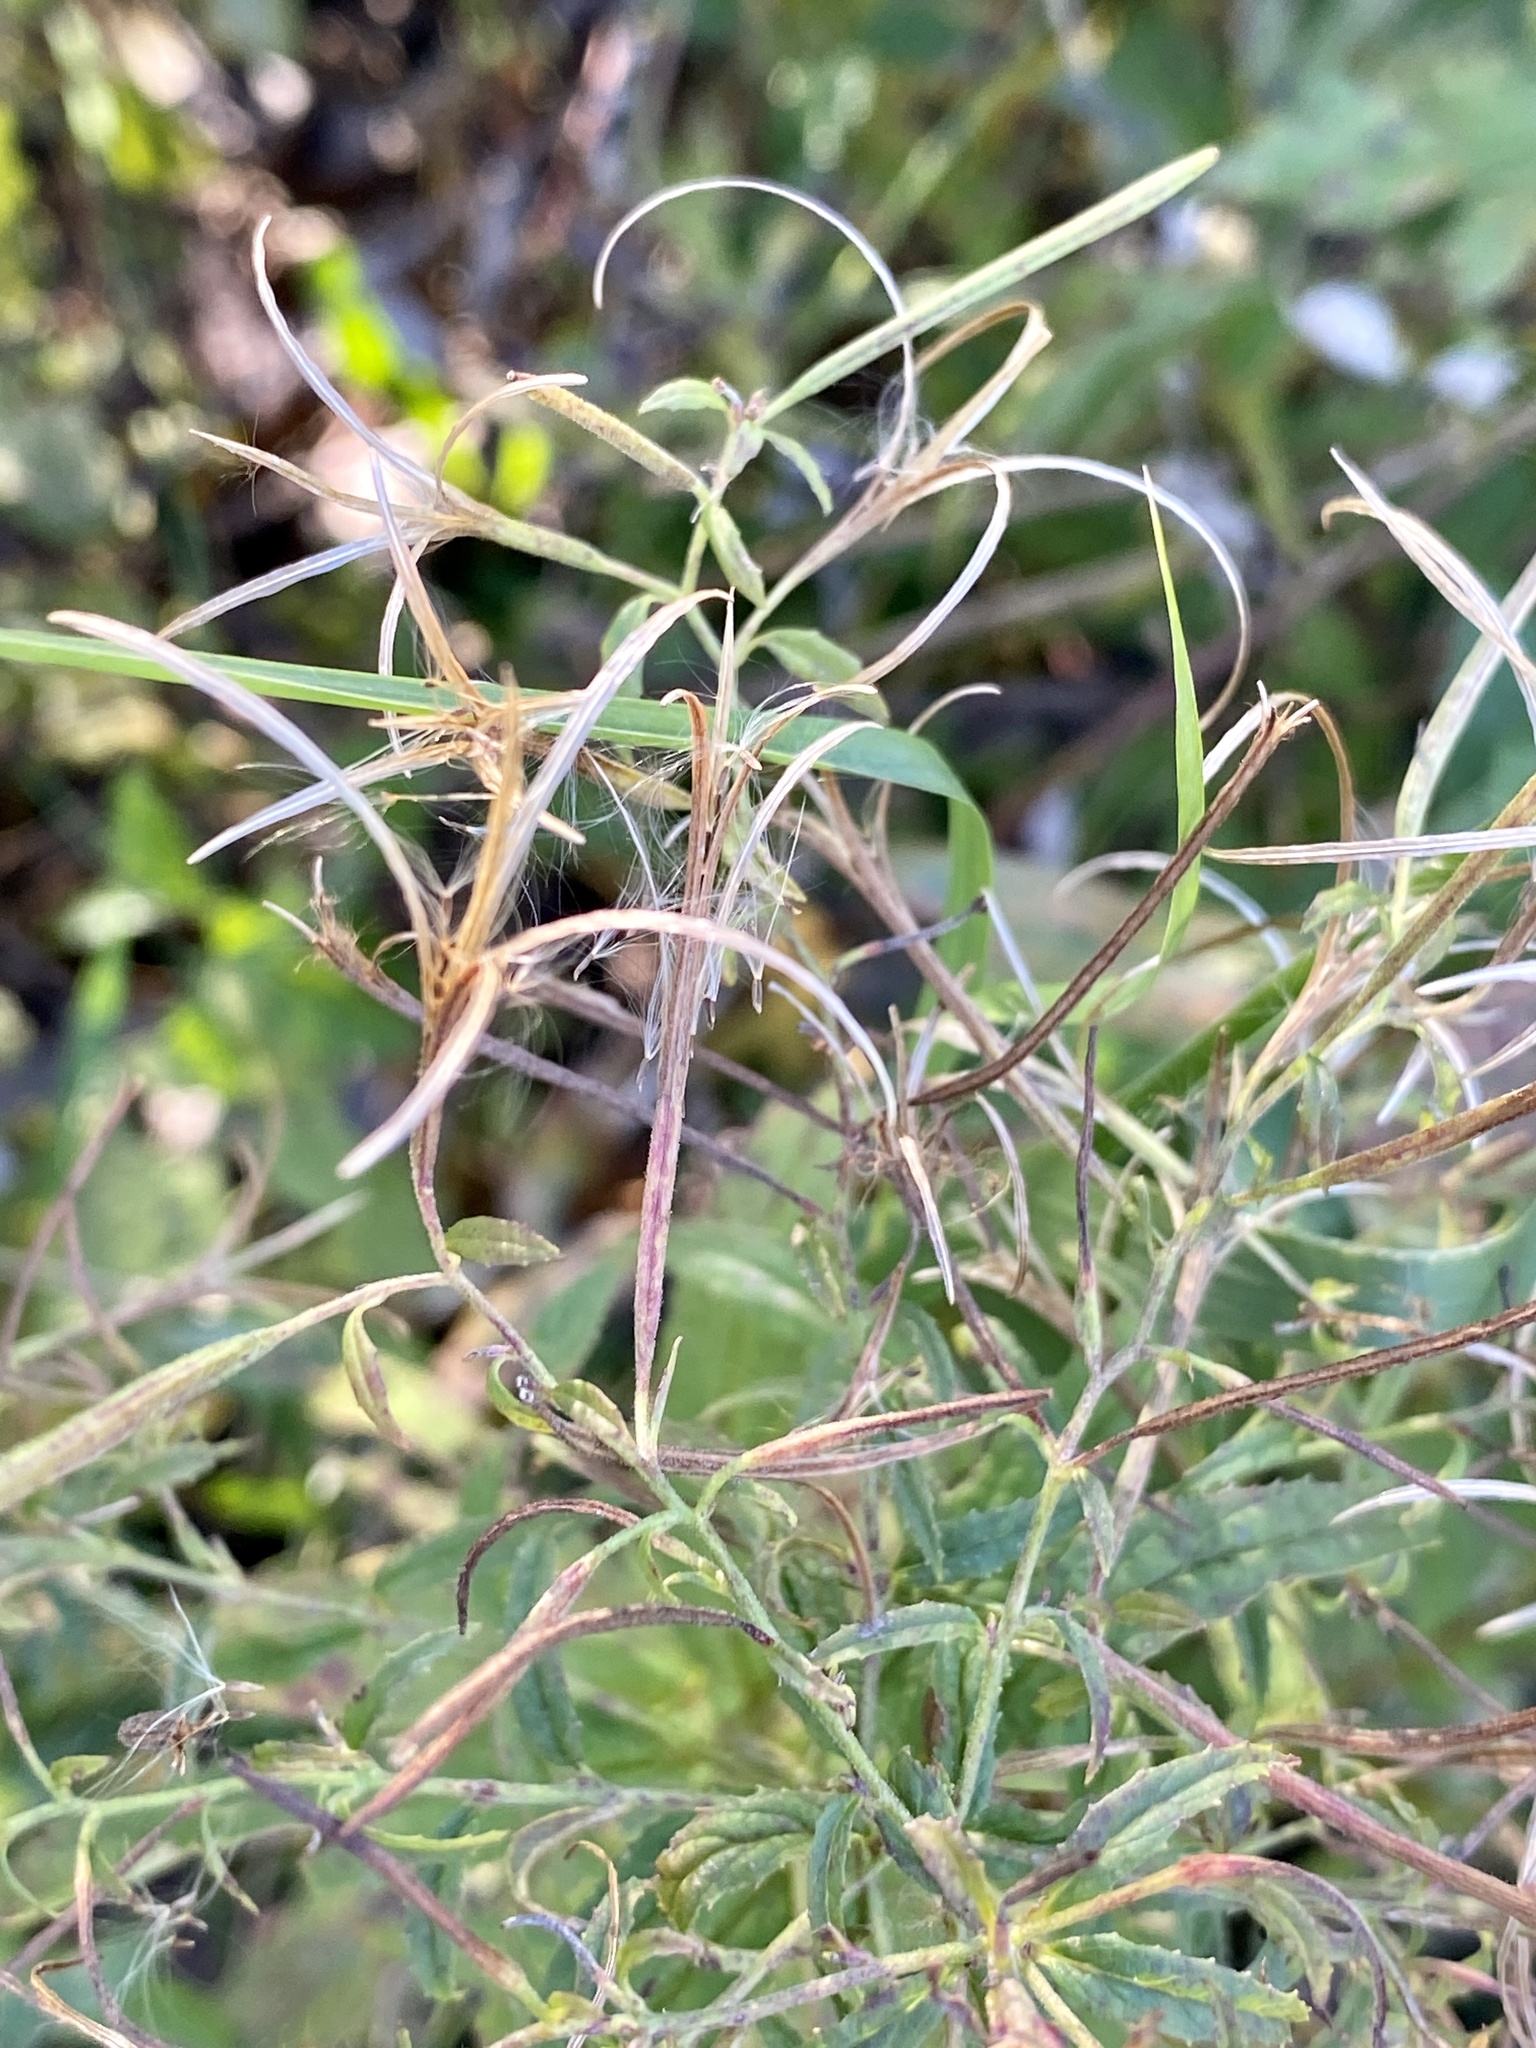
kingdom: Plantae
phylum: Tracheophyta
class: Magnoliopsida
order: Myrtales
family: Onagraceae
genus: Epilobium
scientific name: Epilobium coloratum
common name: Bronze willowherb
